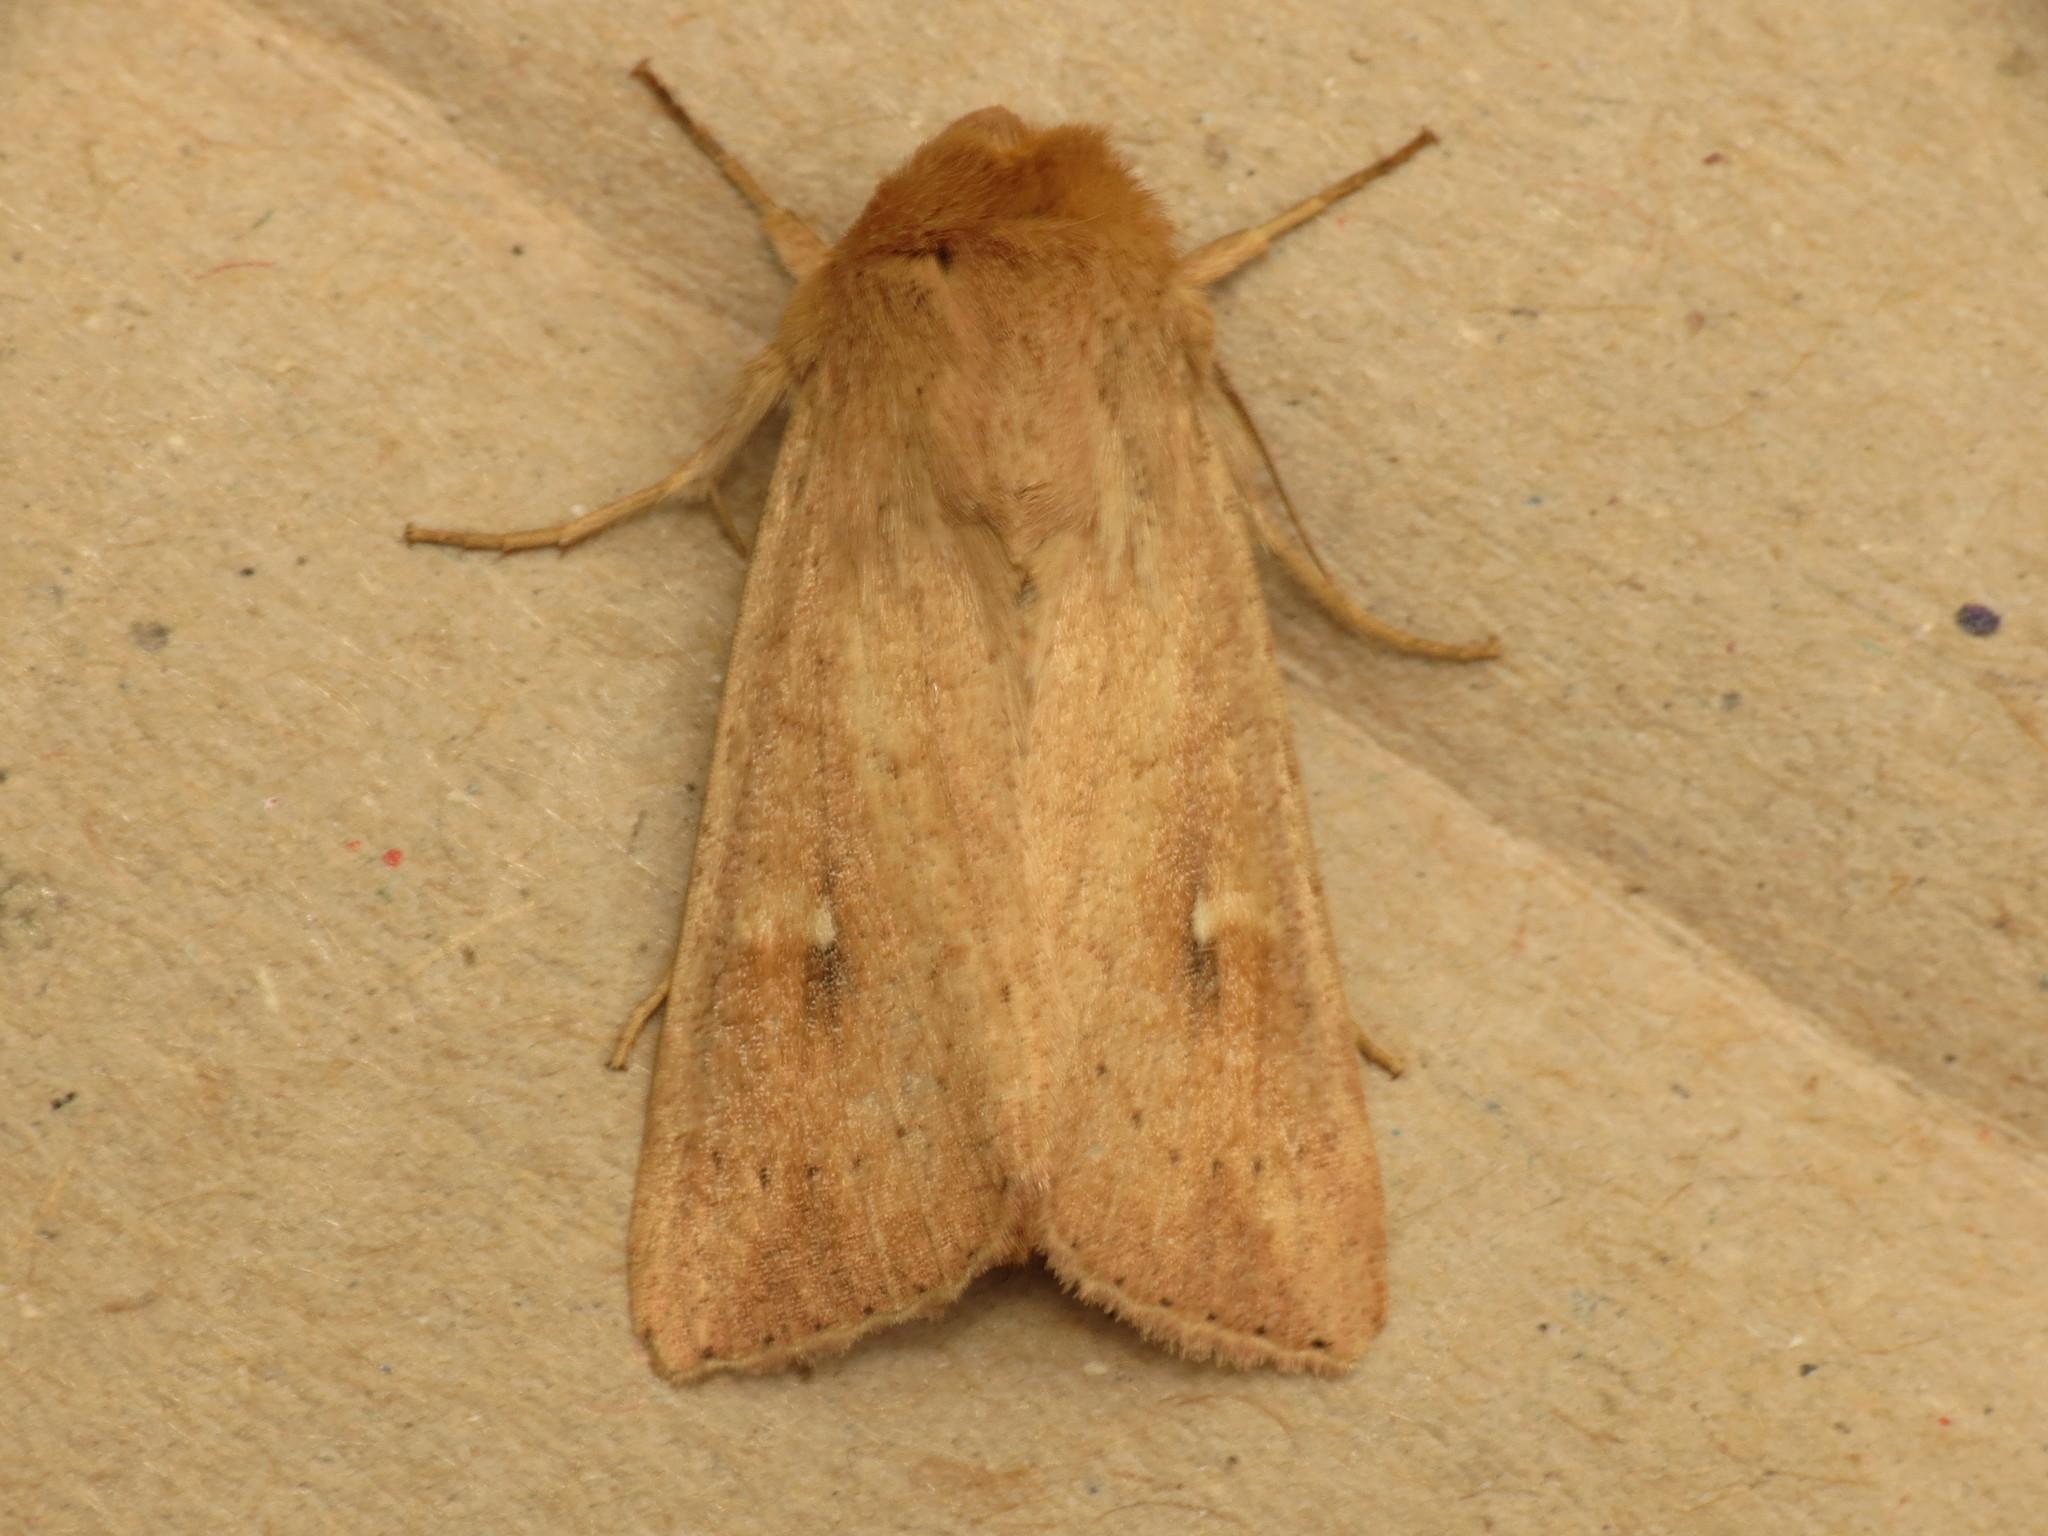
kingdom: Animalia
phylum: Arthropoda
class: Insecta
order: Lepidoptera
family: Noctuidae
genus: Mythimna
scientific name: Mythimna ferrago
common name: Clay
